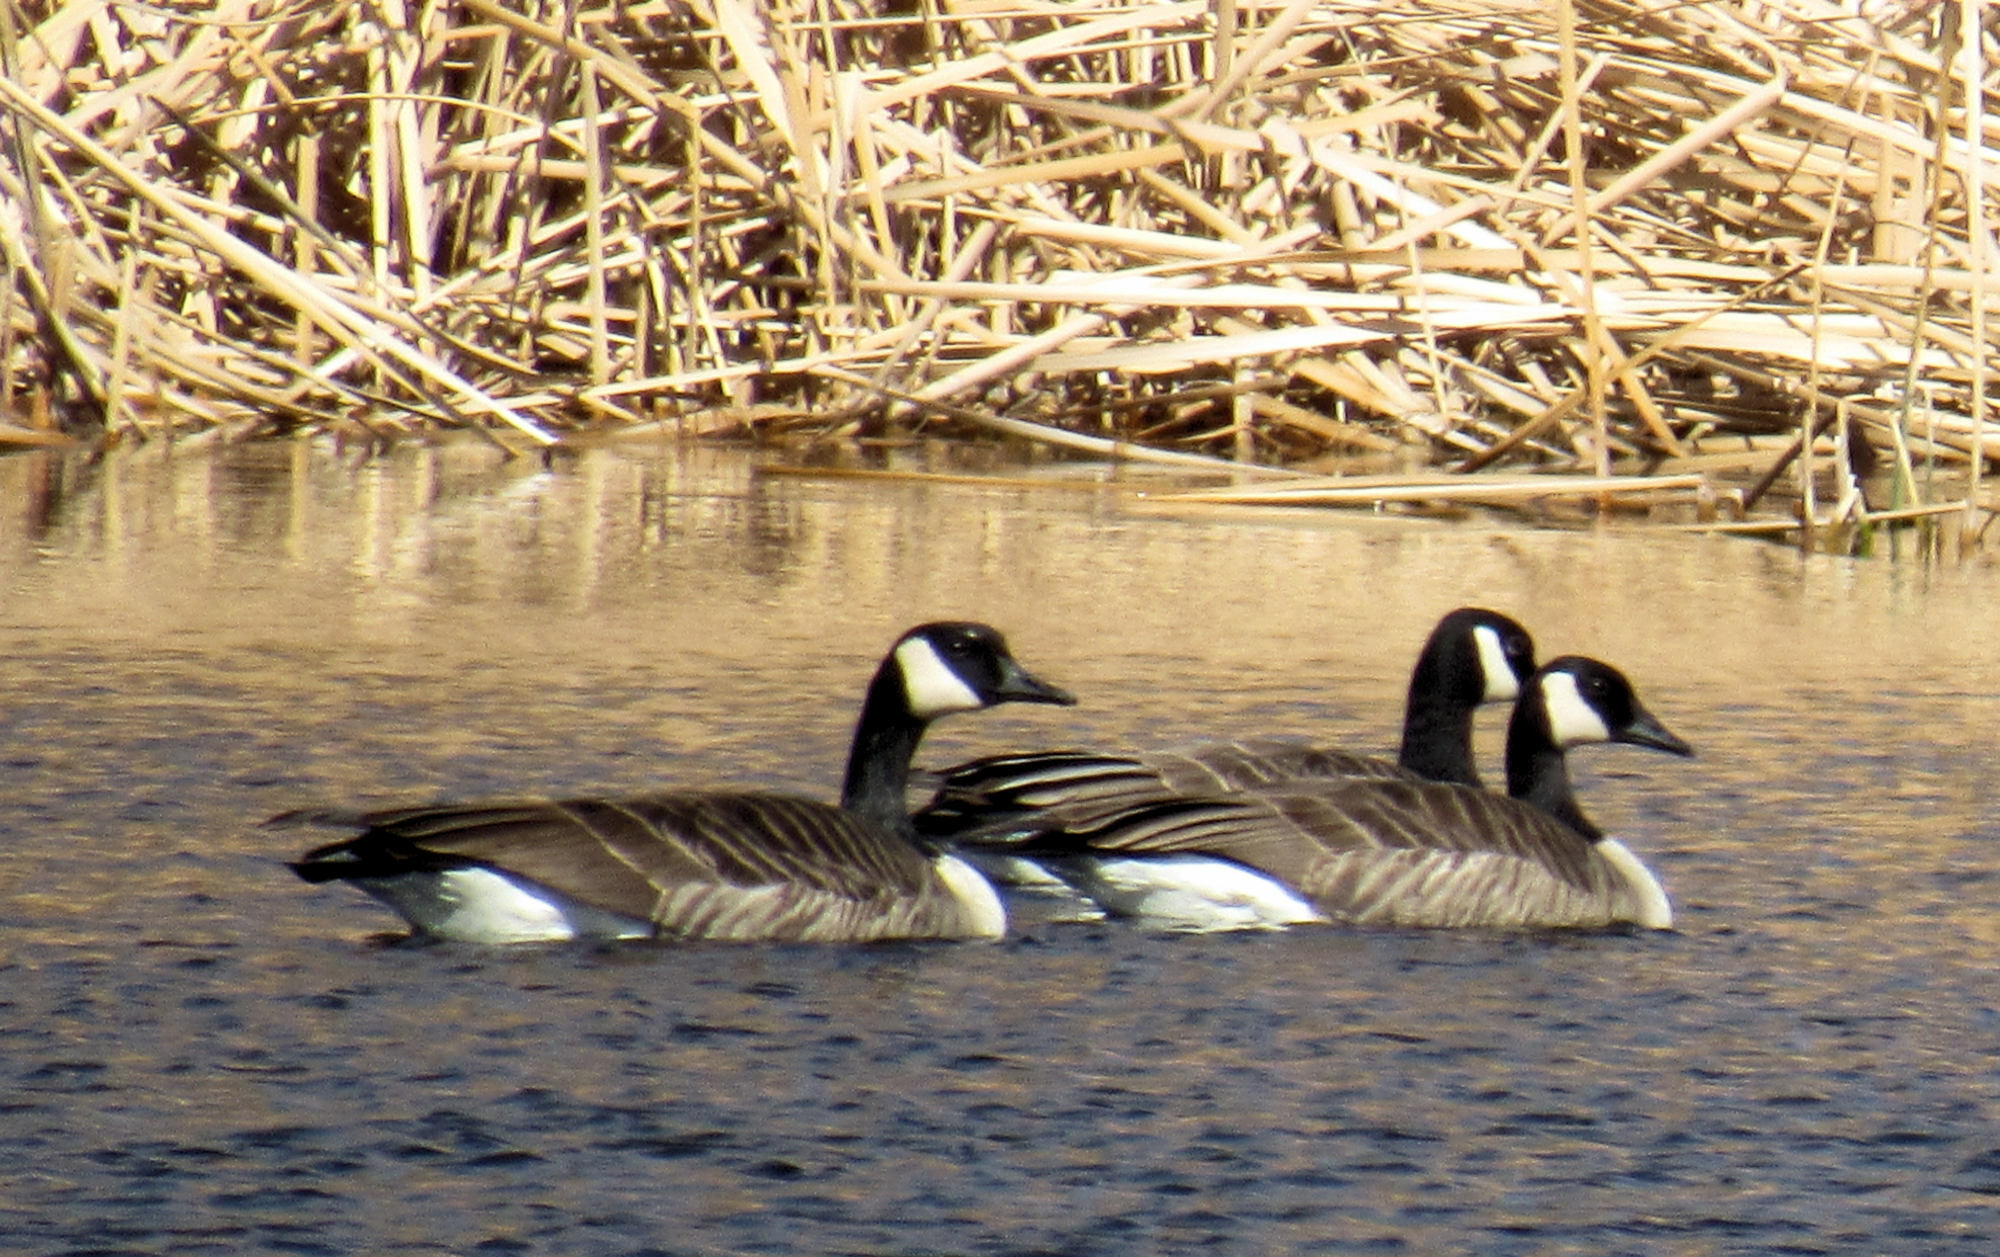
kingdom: Animalia
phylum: Chordata
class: Aves
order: Anseriformes
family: Anatidae
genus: Branta
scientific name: Branta canadensis
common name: Canada goose
